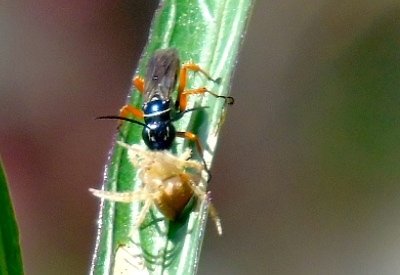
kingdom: Animalia
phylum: Arthropoda
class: Insecta
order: Hymenoptera
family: Pompilidae
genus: Episyron
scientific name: Episyron conterminus
